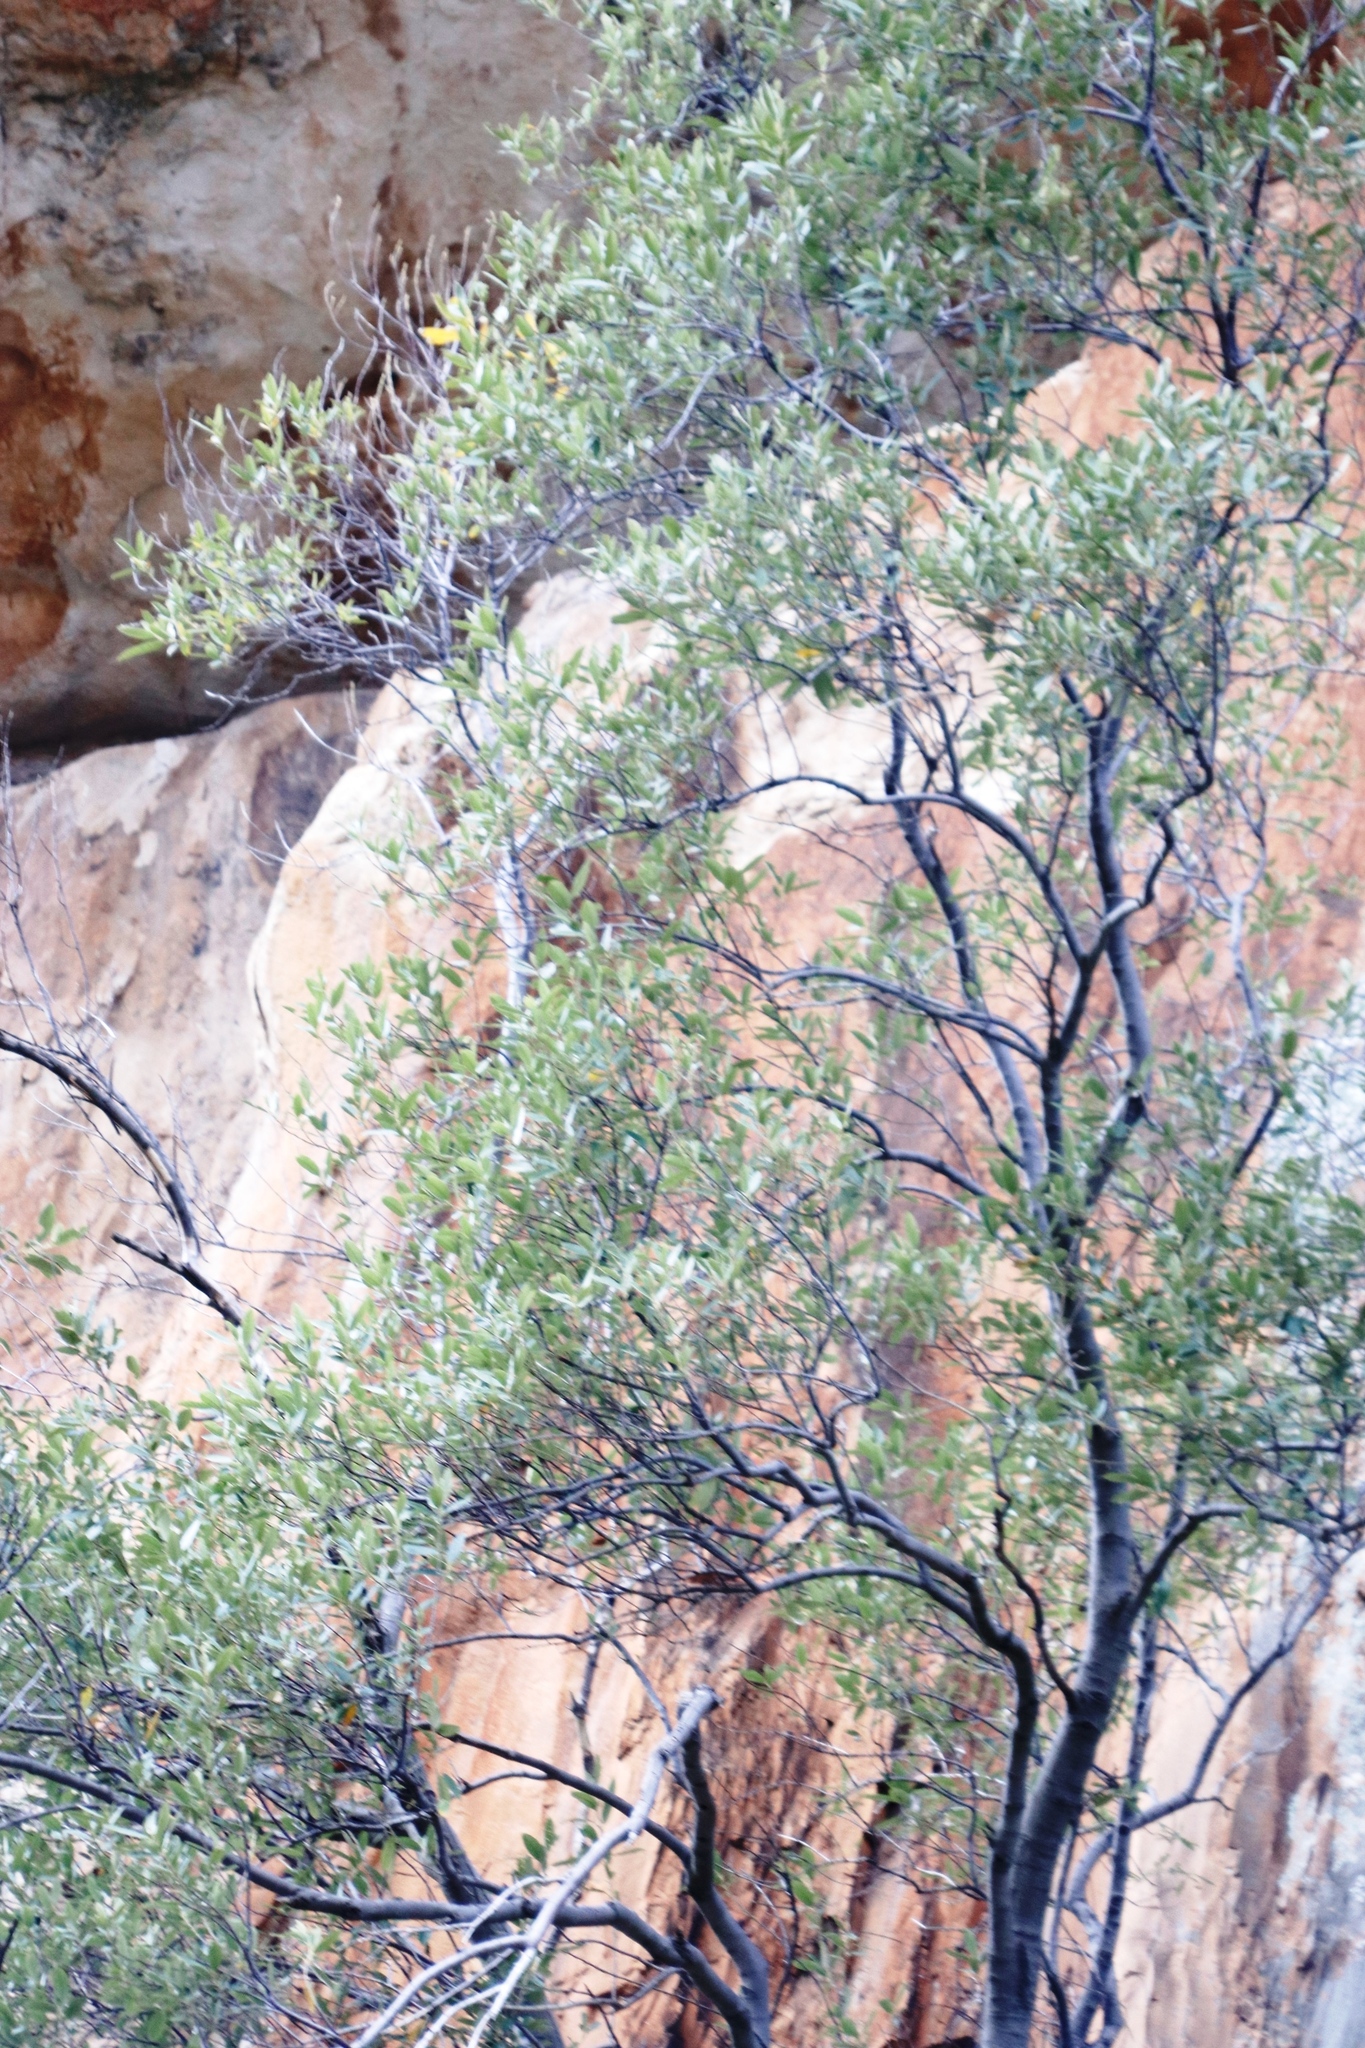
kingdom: Plantae
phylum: Tracheophyta
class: Magnoliopsida
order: Malpighiales
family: Achariaceae
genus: Kiggelaria
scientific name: Kiggelaria africana
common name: Wild peach
